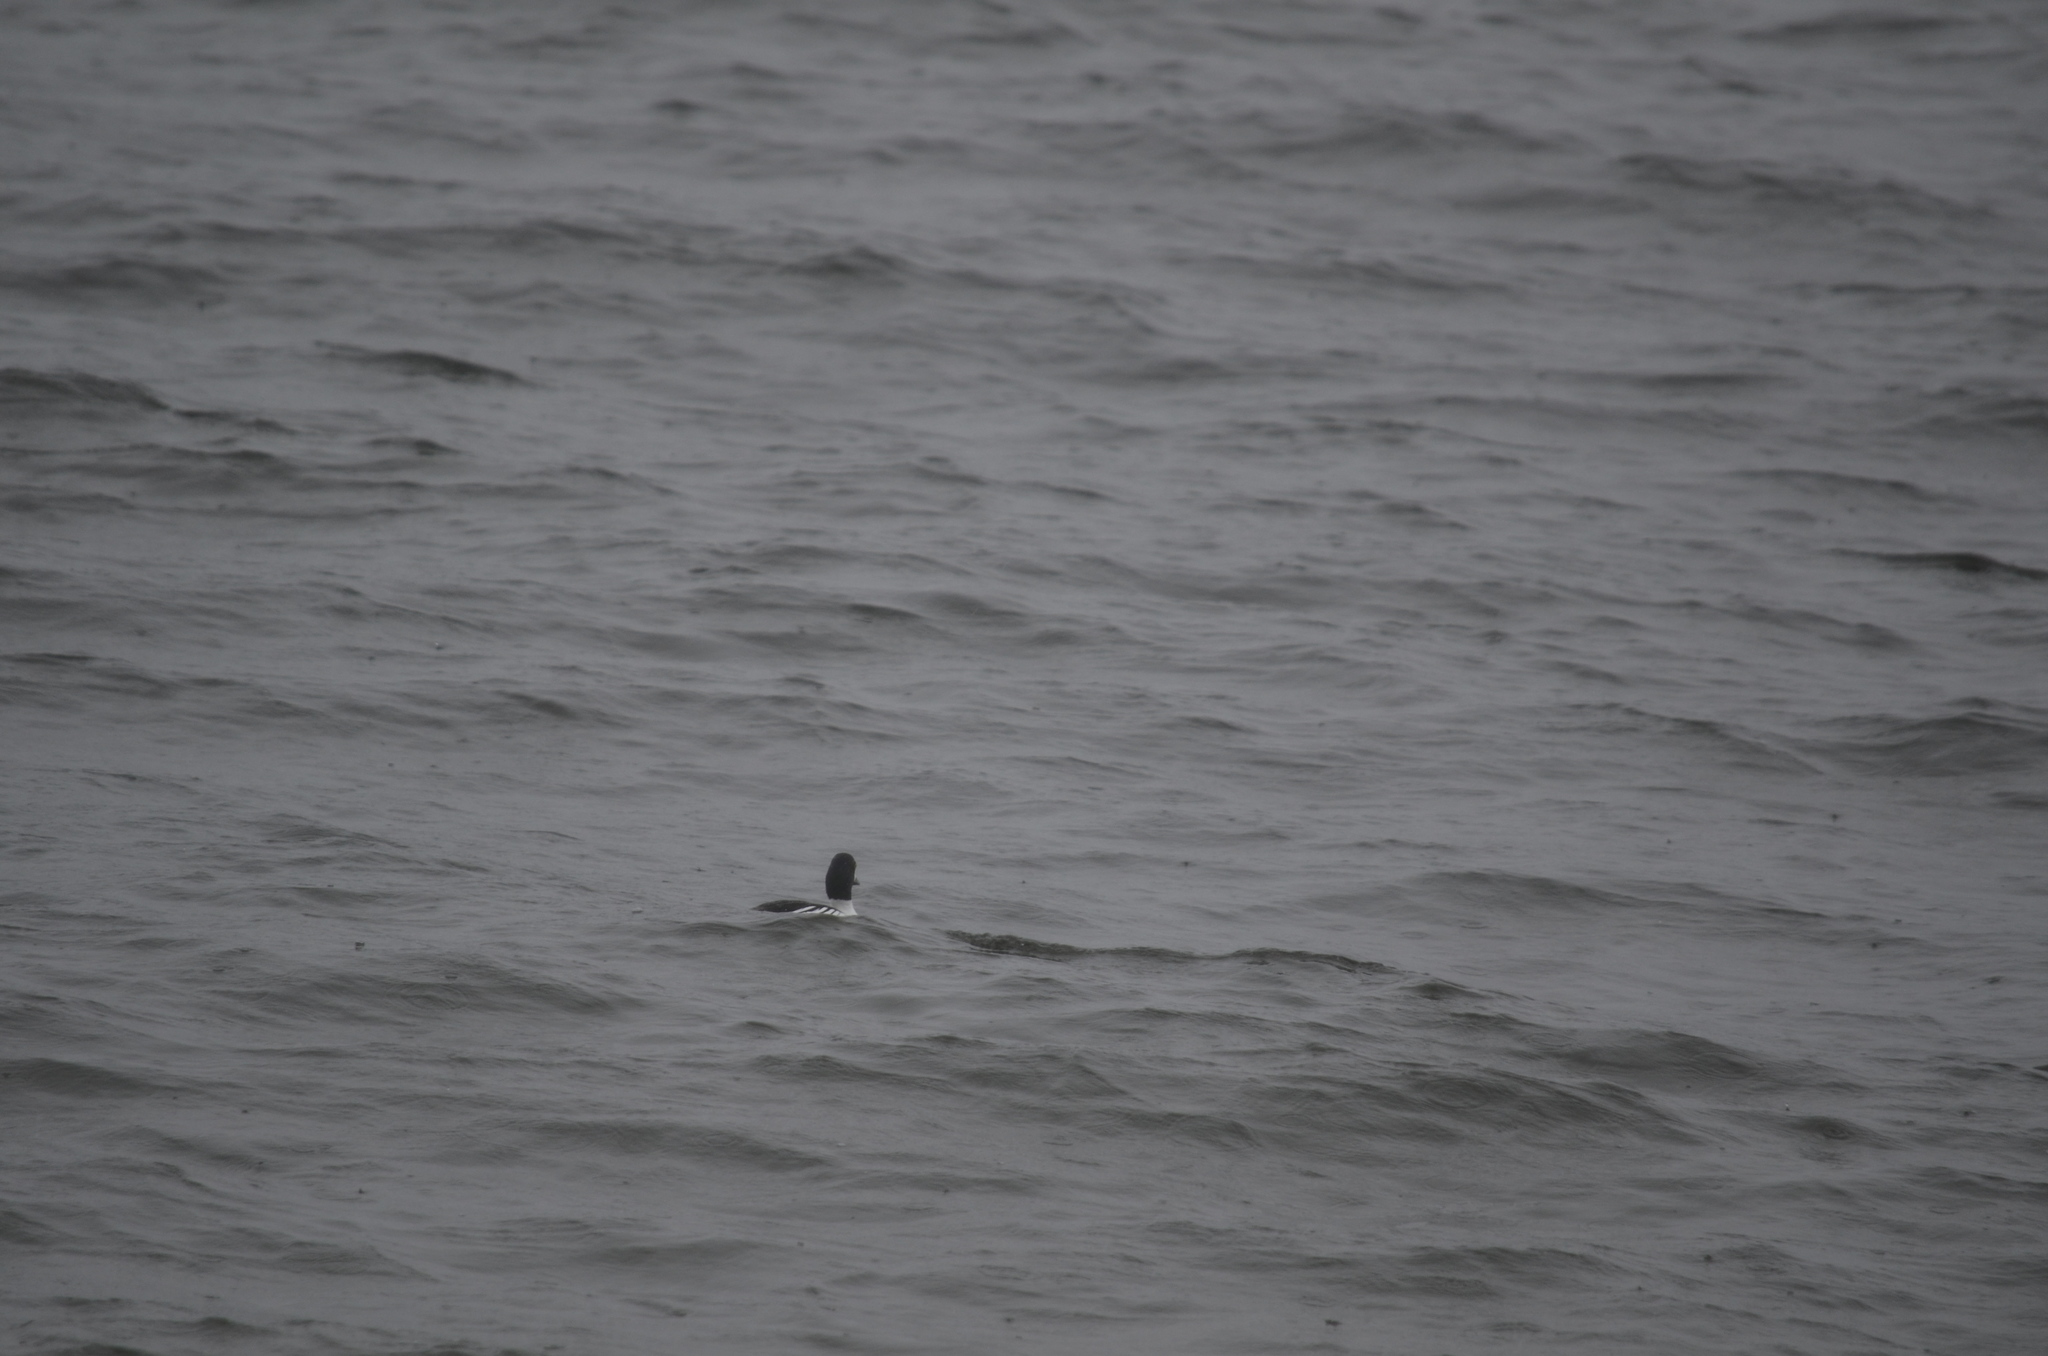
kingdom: Animalia
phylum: Chordata
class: Aves
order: Anseriformes
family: Anatidae
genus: Bucephala
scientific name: Bucephala islandica
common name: Barrow's goldeneye
